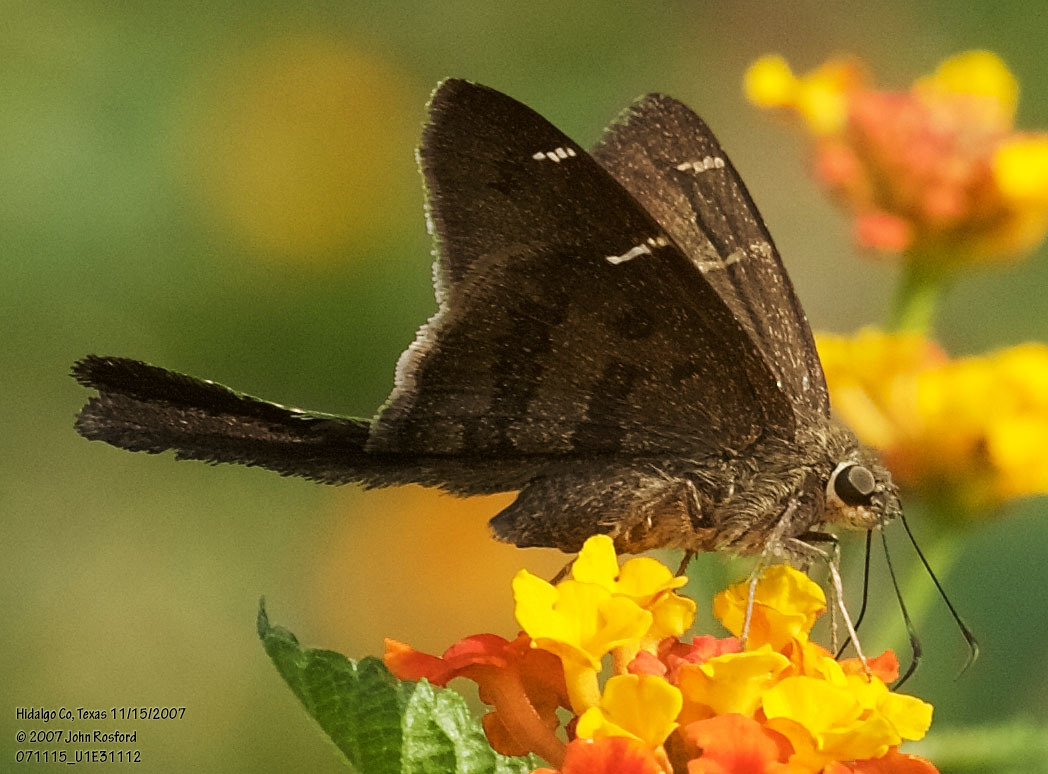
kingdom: Animalia
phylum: Arthropoda
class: Insecta
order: Lepidoptera
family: Hesperiidae
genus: Urbanus
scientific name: Urbanus procne
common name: Brown longtail
